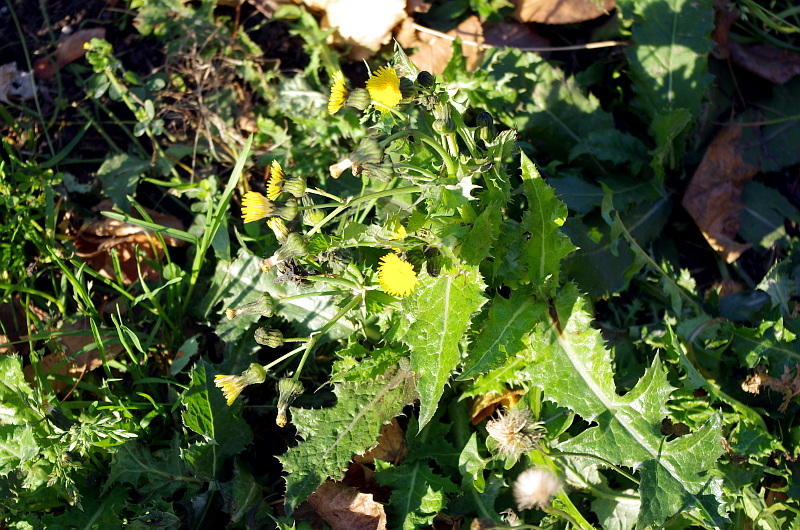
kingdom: Plantae
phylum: Tracheophyta
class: Magnoliopsida
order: Asterales
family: Asteraceae
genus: Sonchus
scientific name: Sonchus asper
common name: Prickly sow-thistle
